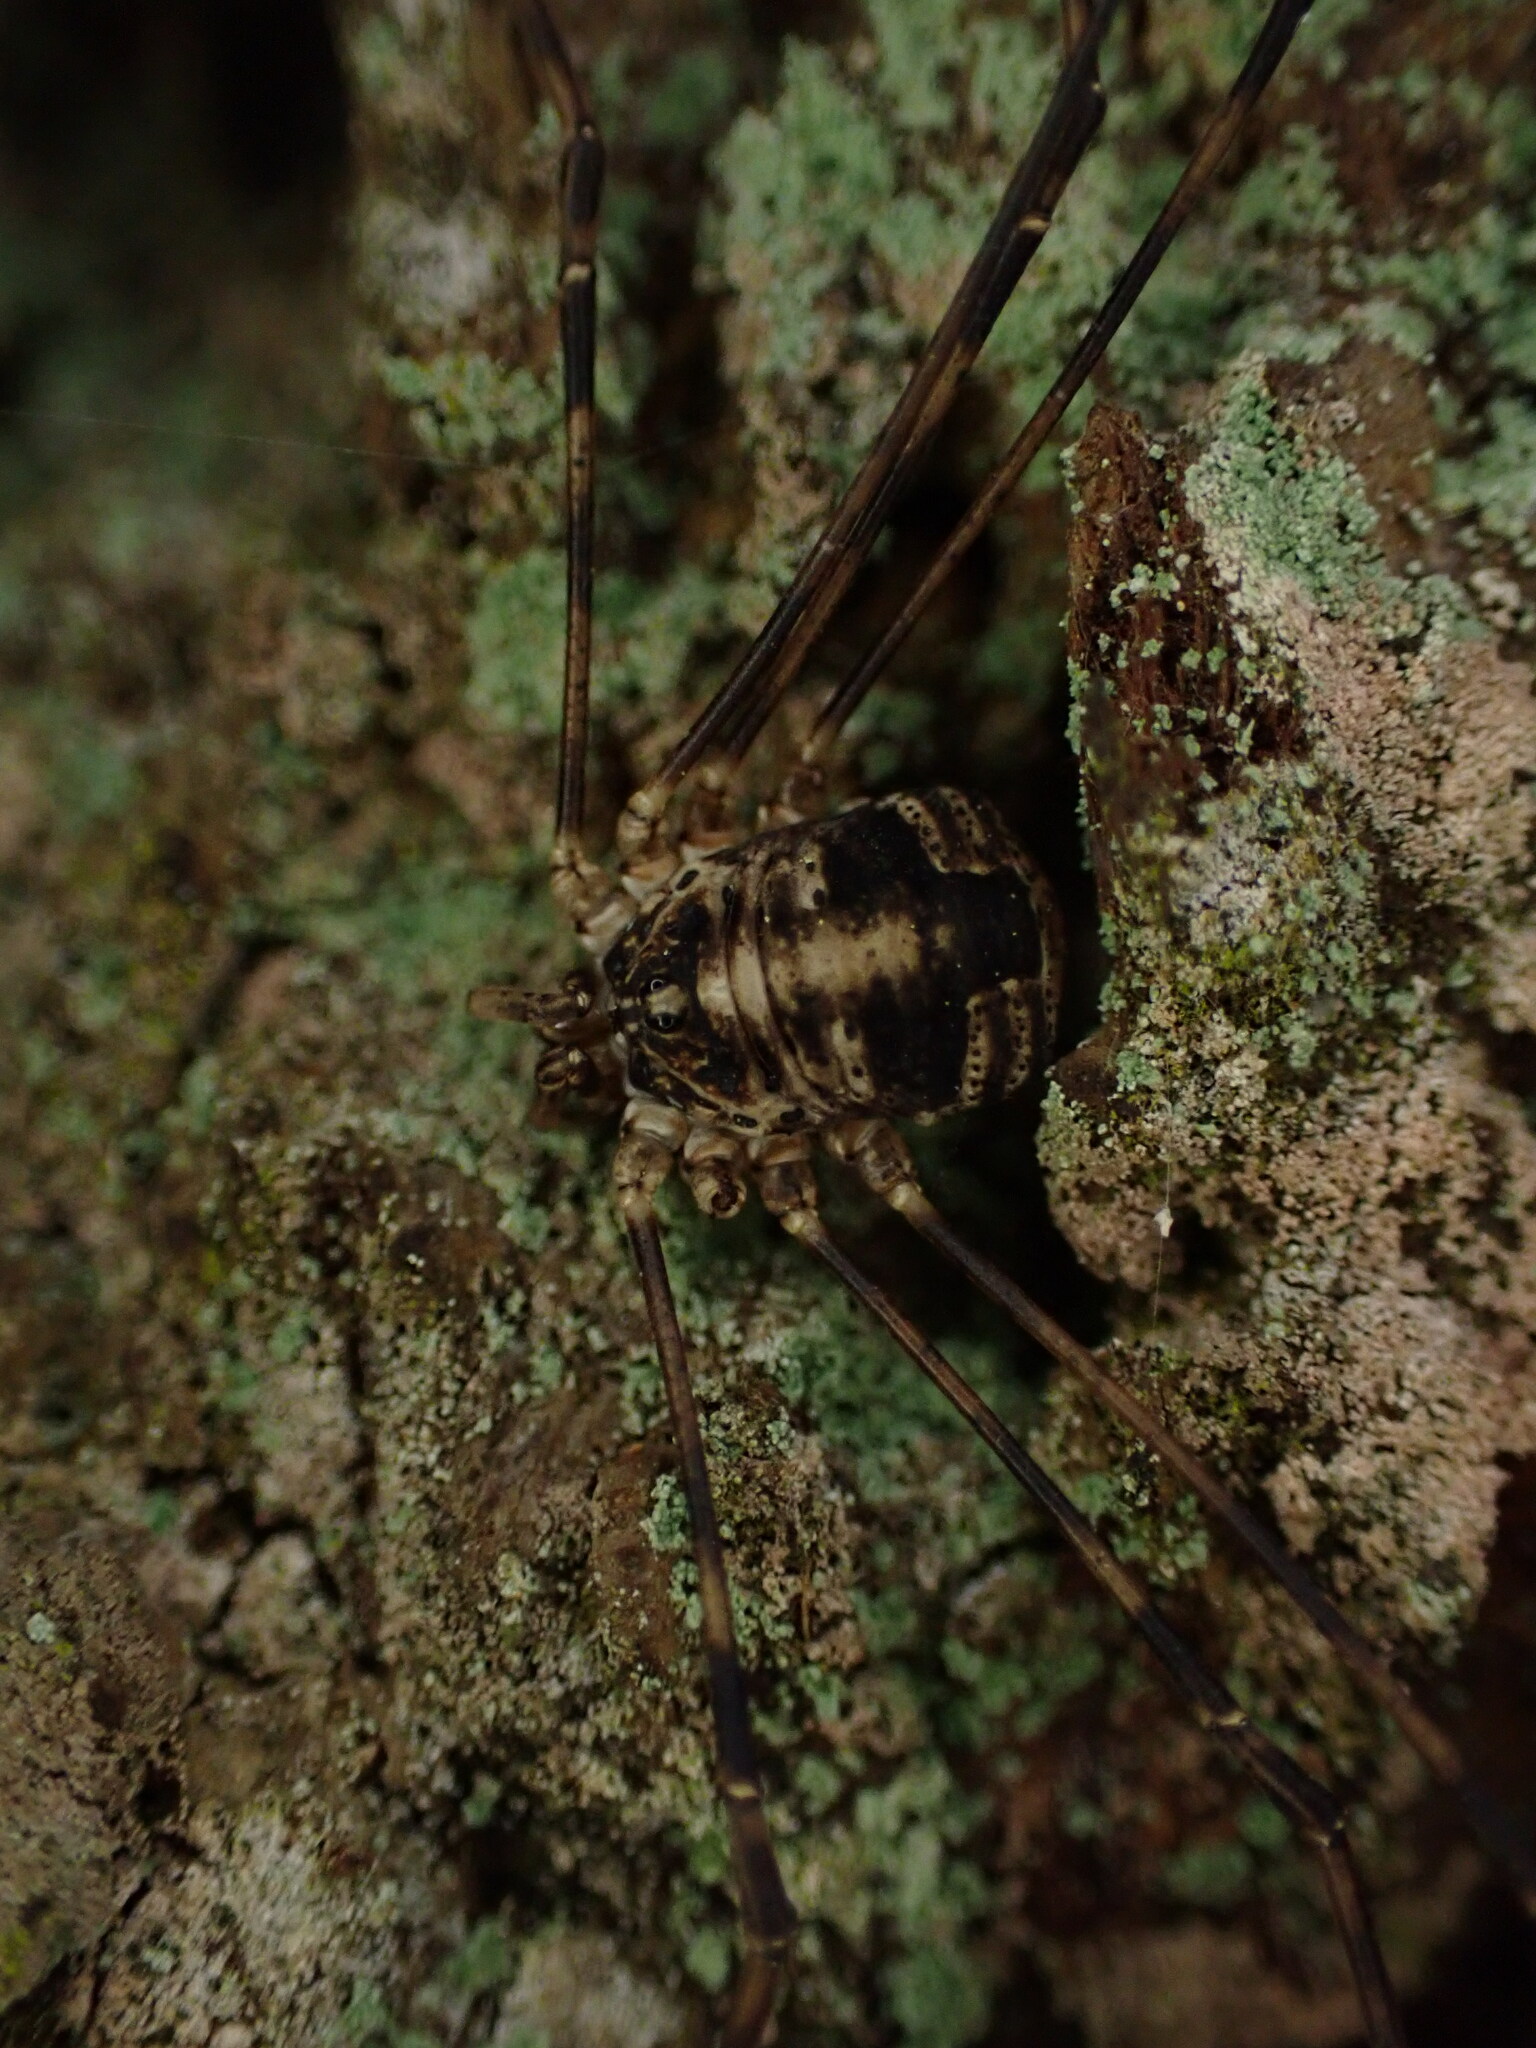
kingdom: Animalia
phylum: Arthropoda
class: Arachnida
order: Opiliones
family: Phalangiidae
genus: Leptobunus
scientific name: Leptobunus parvulus
